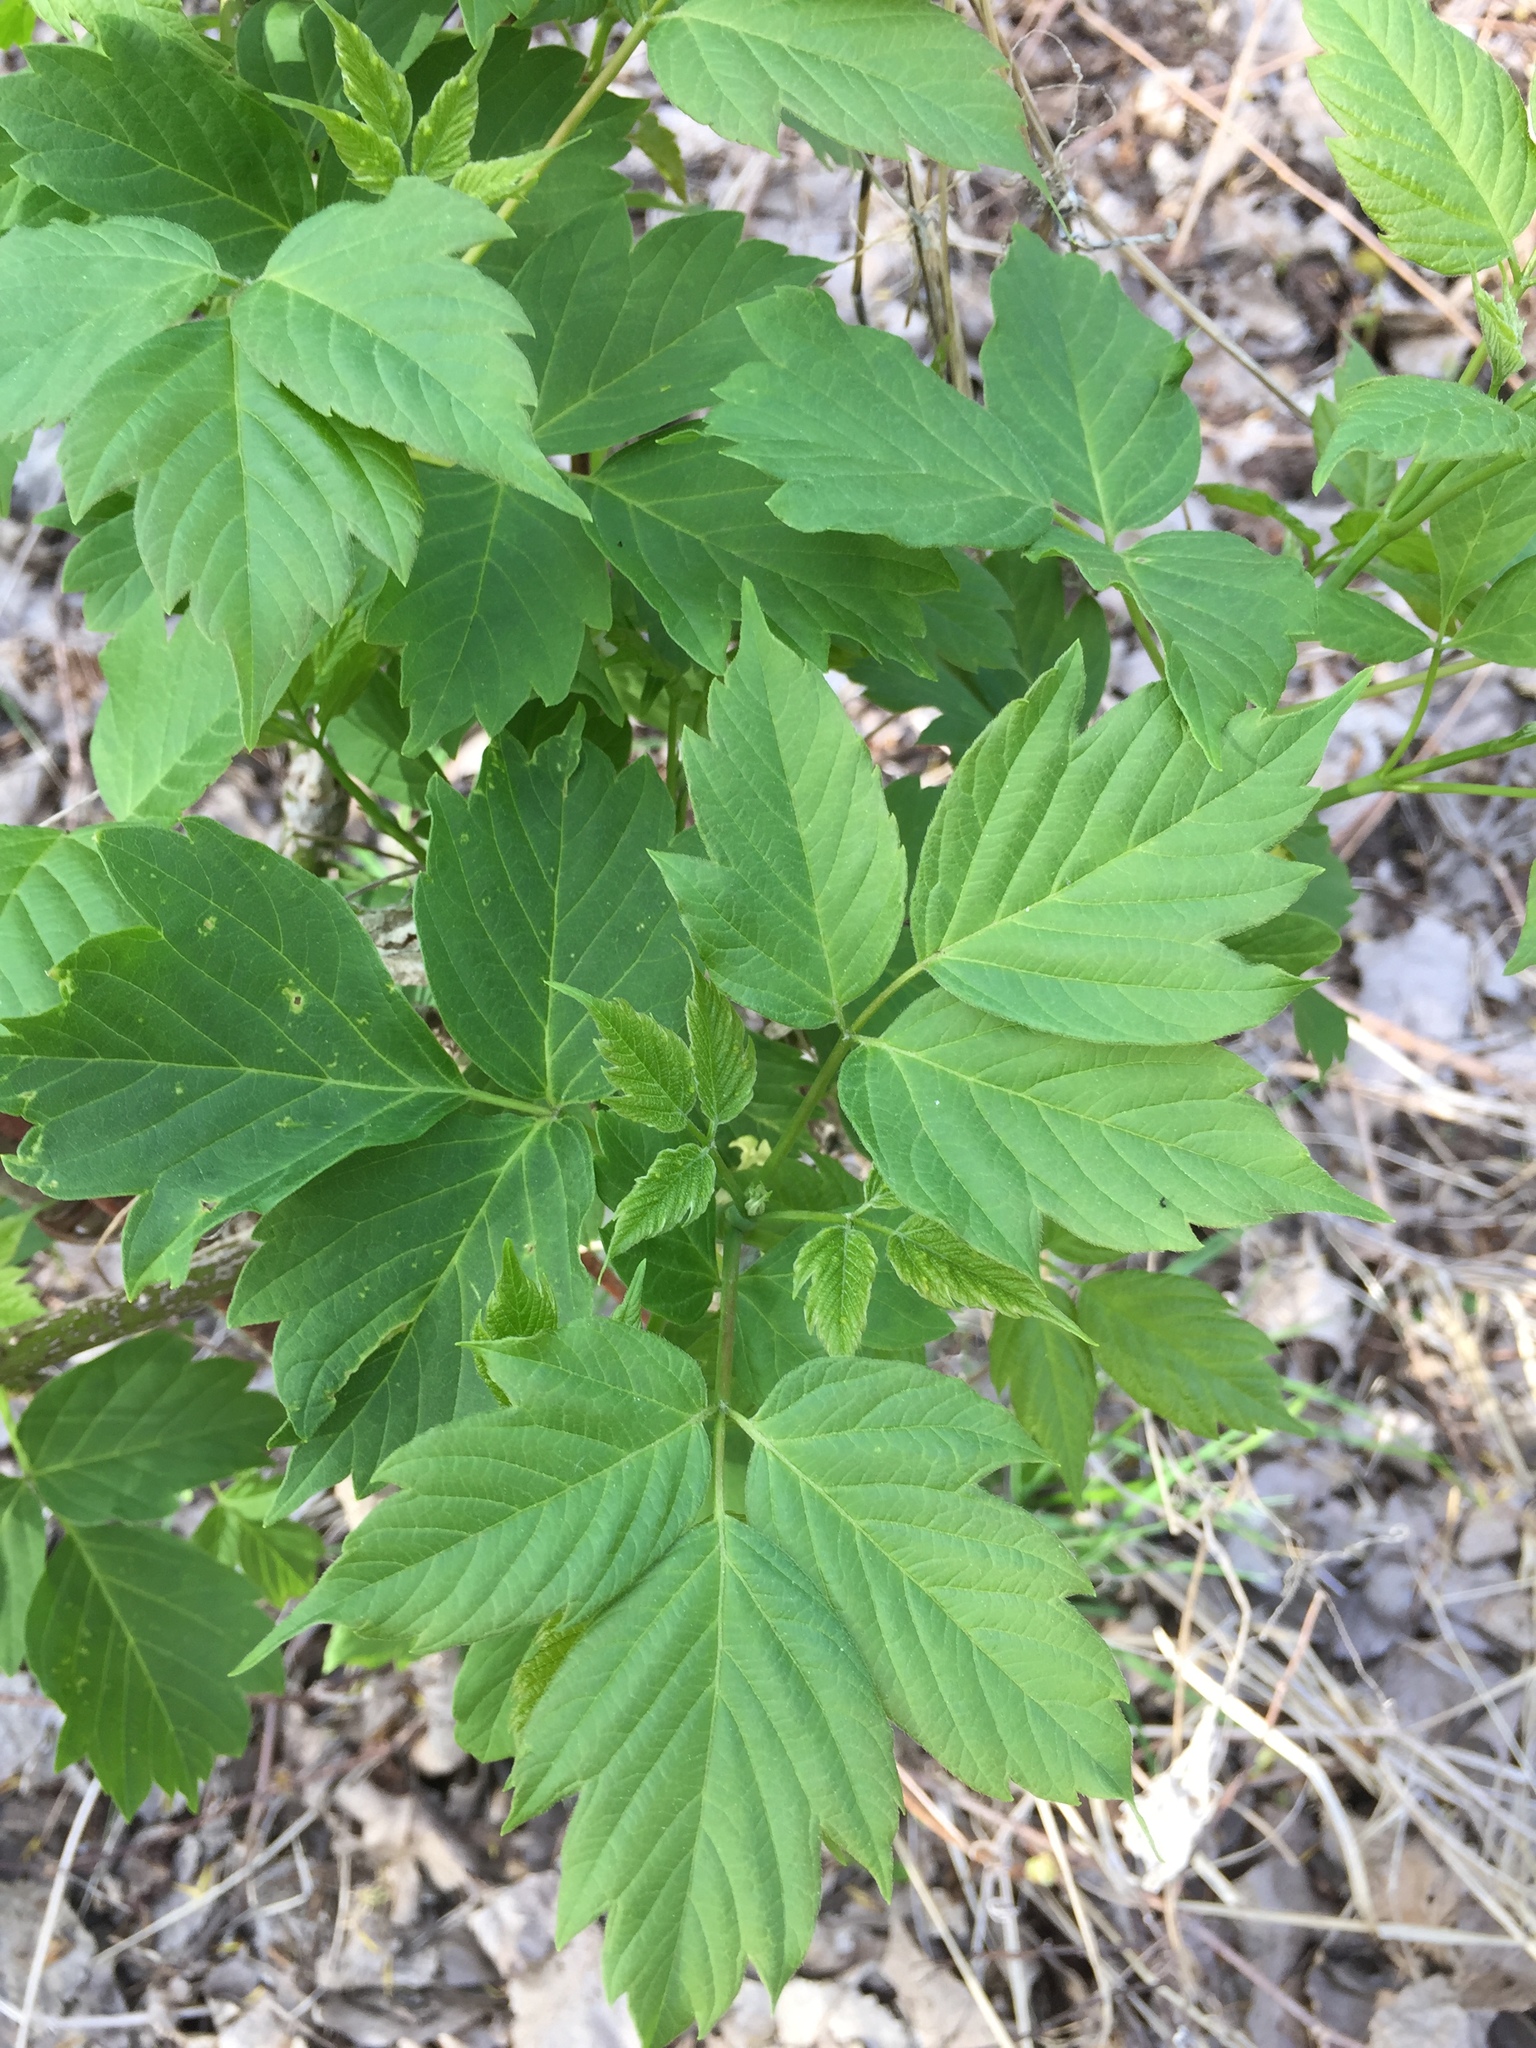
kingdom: Plantae
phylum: Tracheophyta
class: Magnoliopsida
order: Sapindales
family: Sapindaceae
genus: Acer
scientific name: Acer negundo
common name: Ashleaf maple
